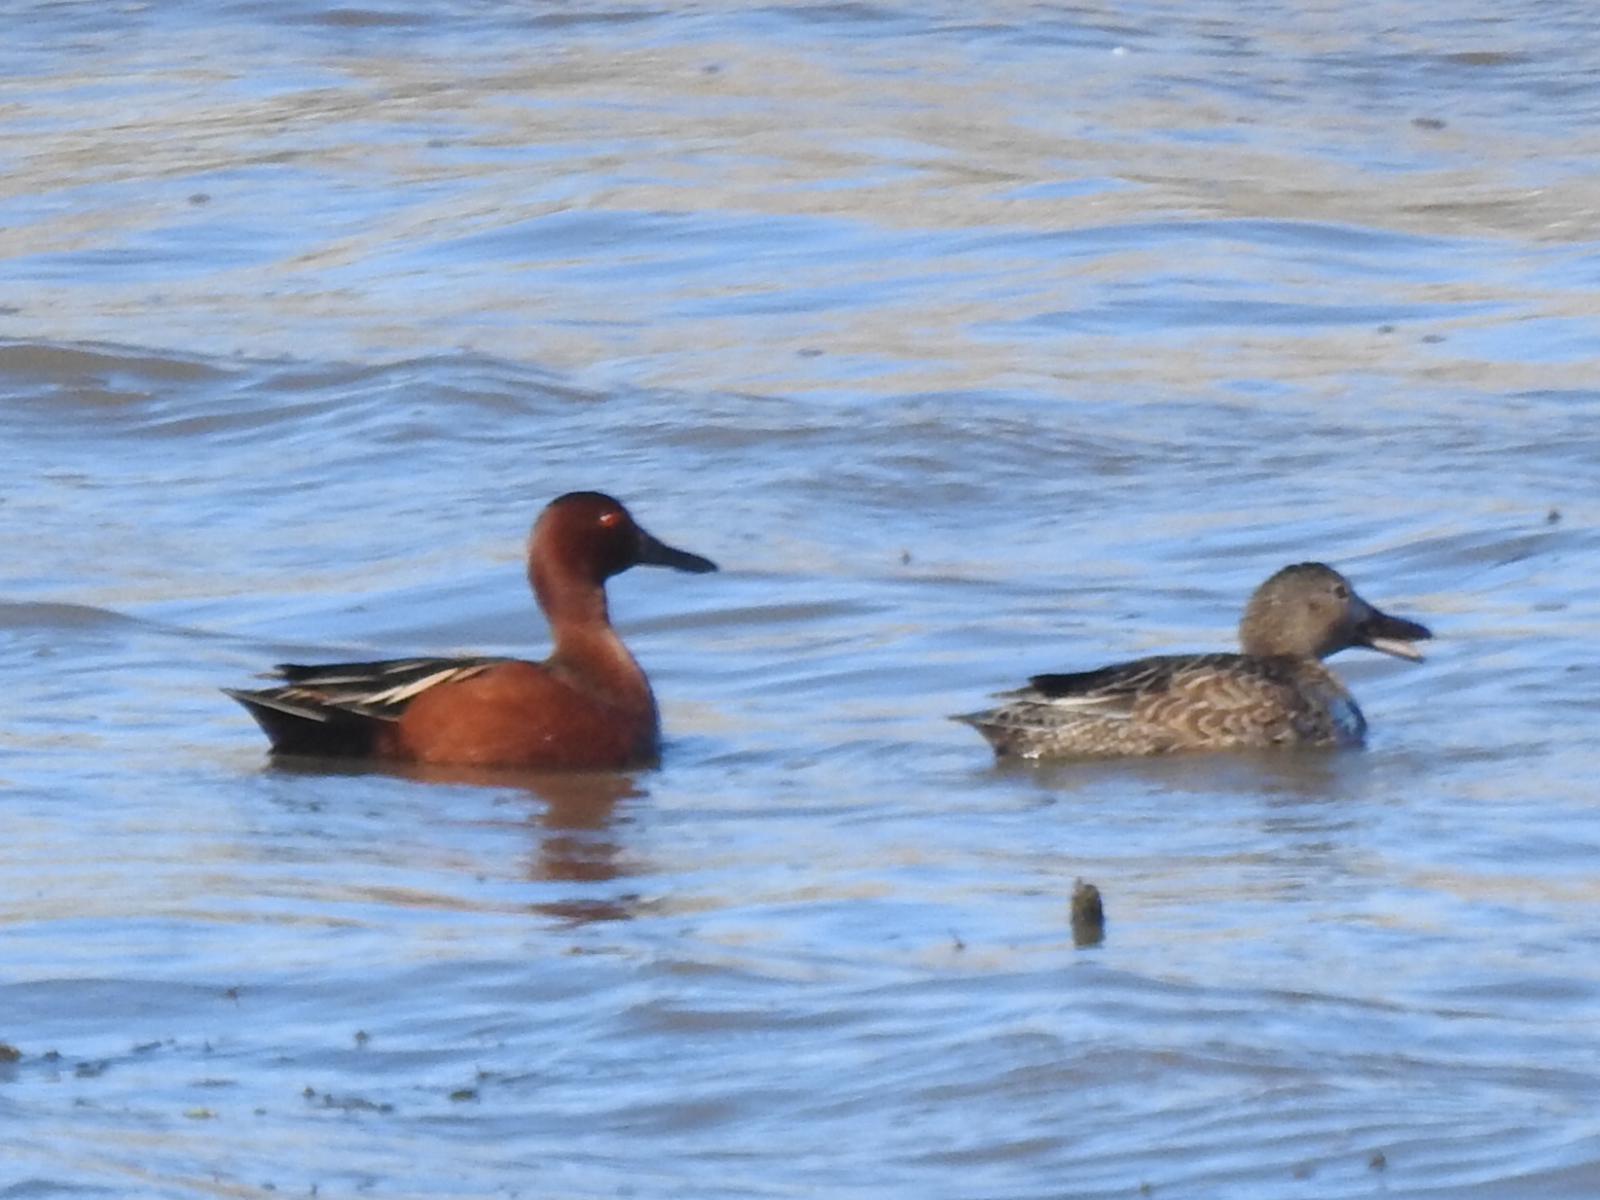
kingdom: Animalia
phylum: Chordata
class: Aves
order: Anseriformes
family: Anatidae
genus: Spatula
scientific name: Spatula cyanoptera
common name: Cinnamon teal
